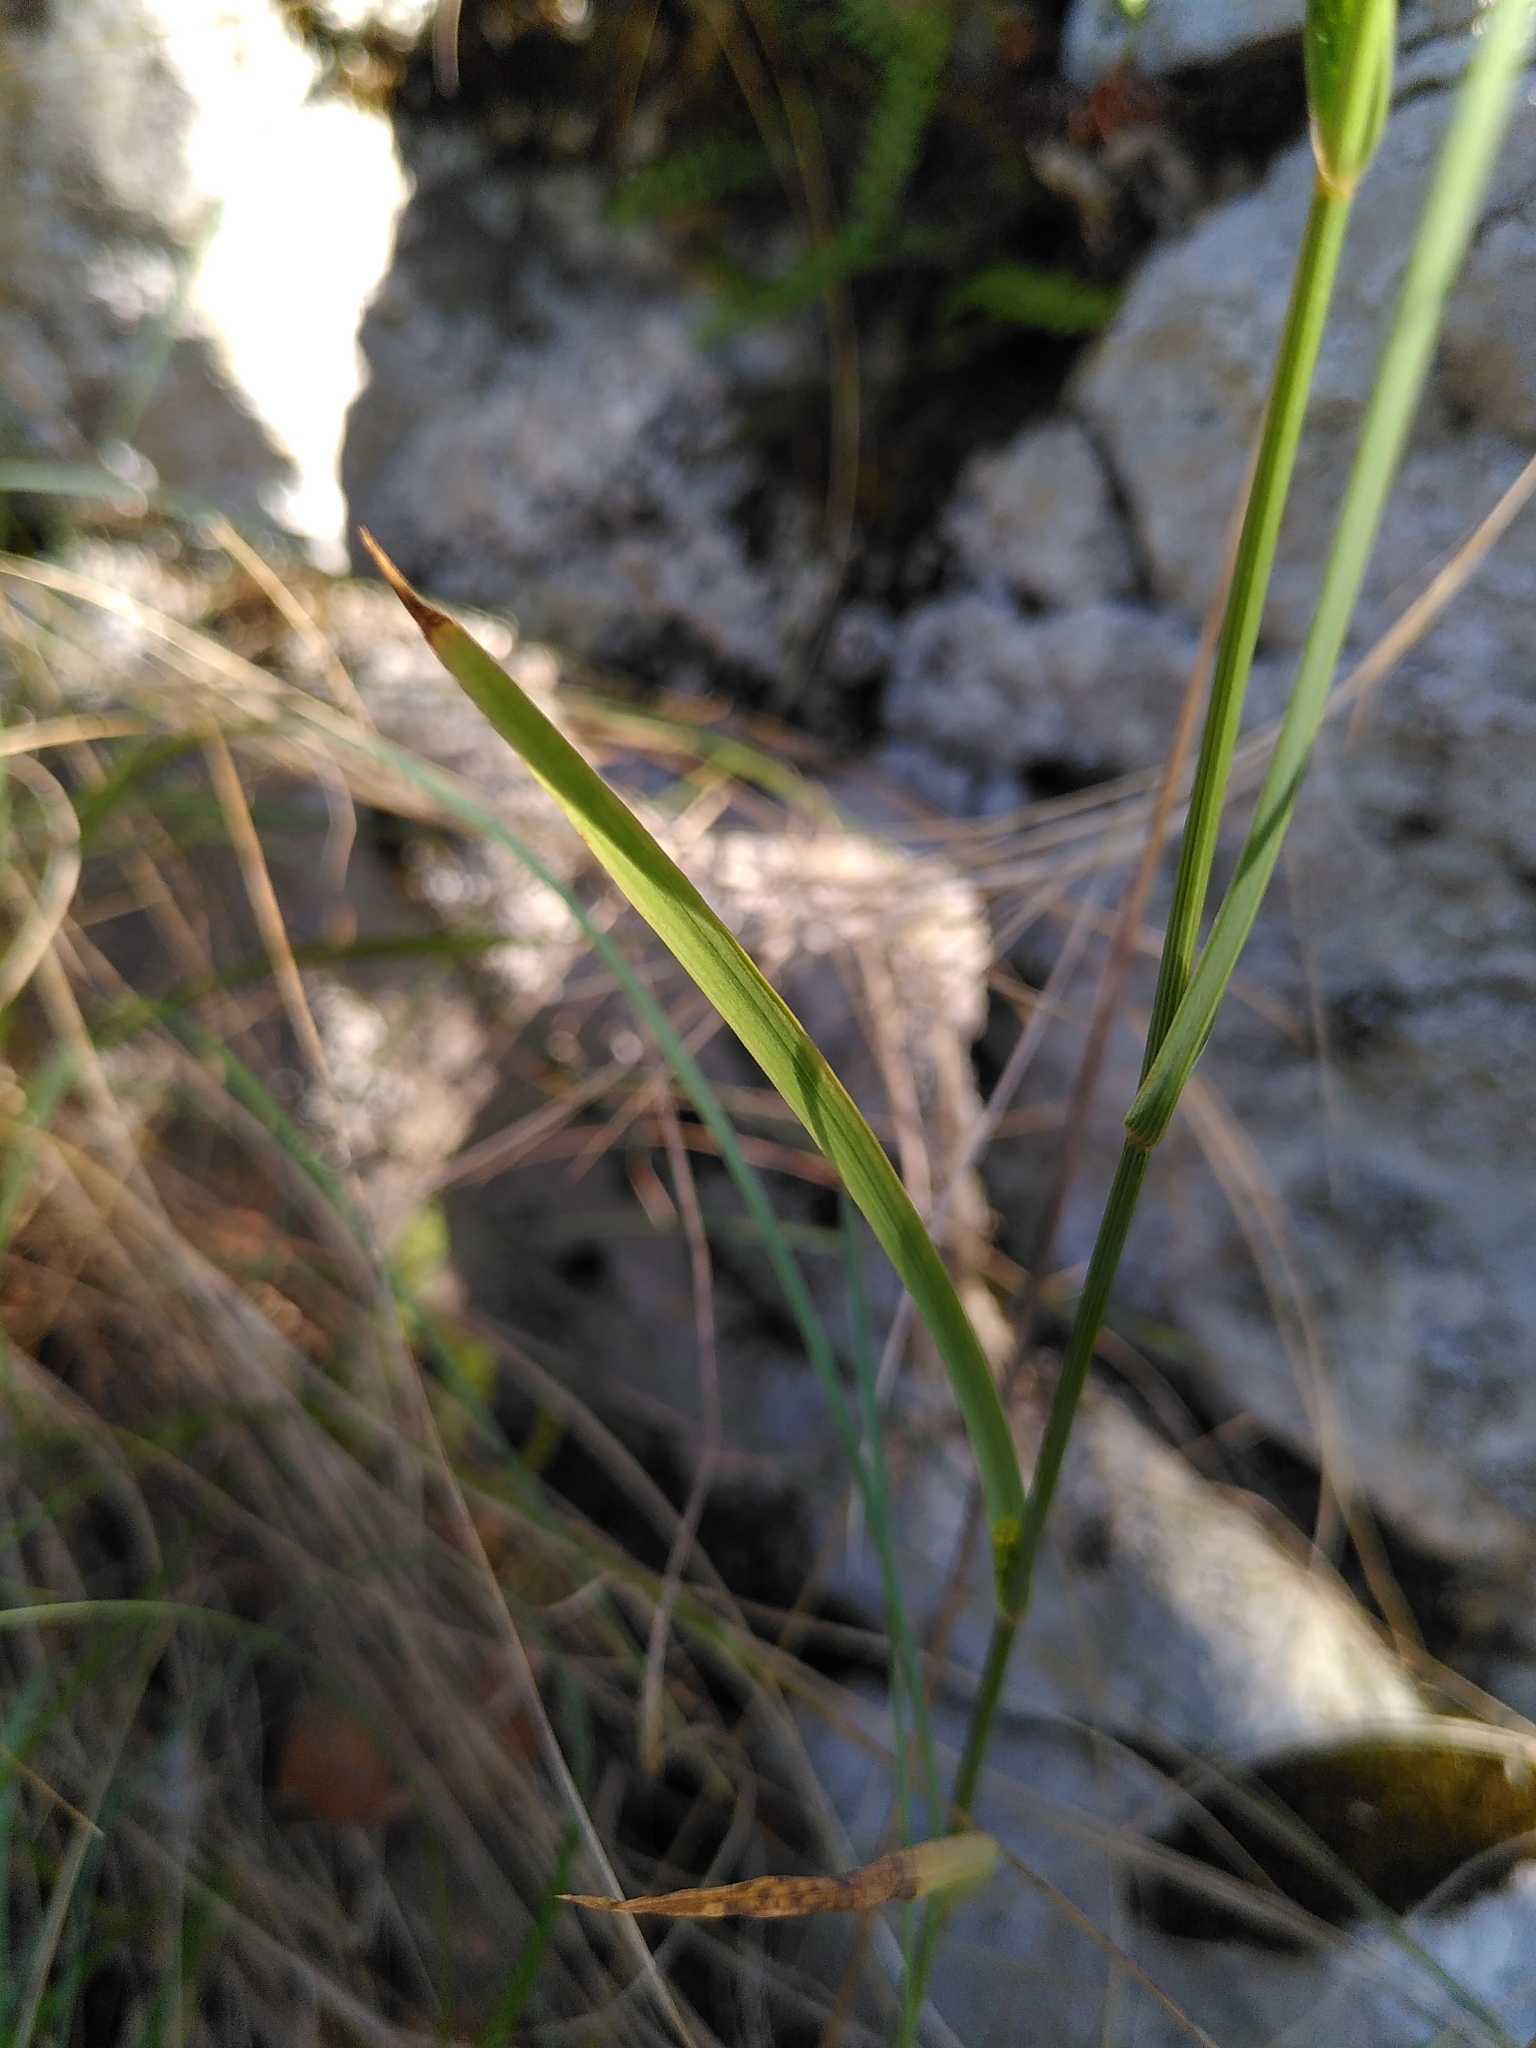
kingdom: Plantae
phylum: Tracheophyta
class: Magnoliopsida
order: Apiales
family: Apiaceae
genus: Bupleurum
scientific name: Bupleurum praealtum
